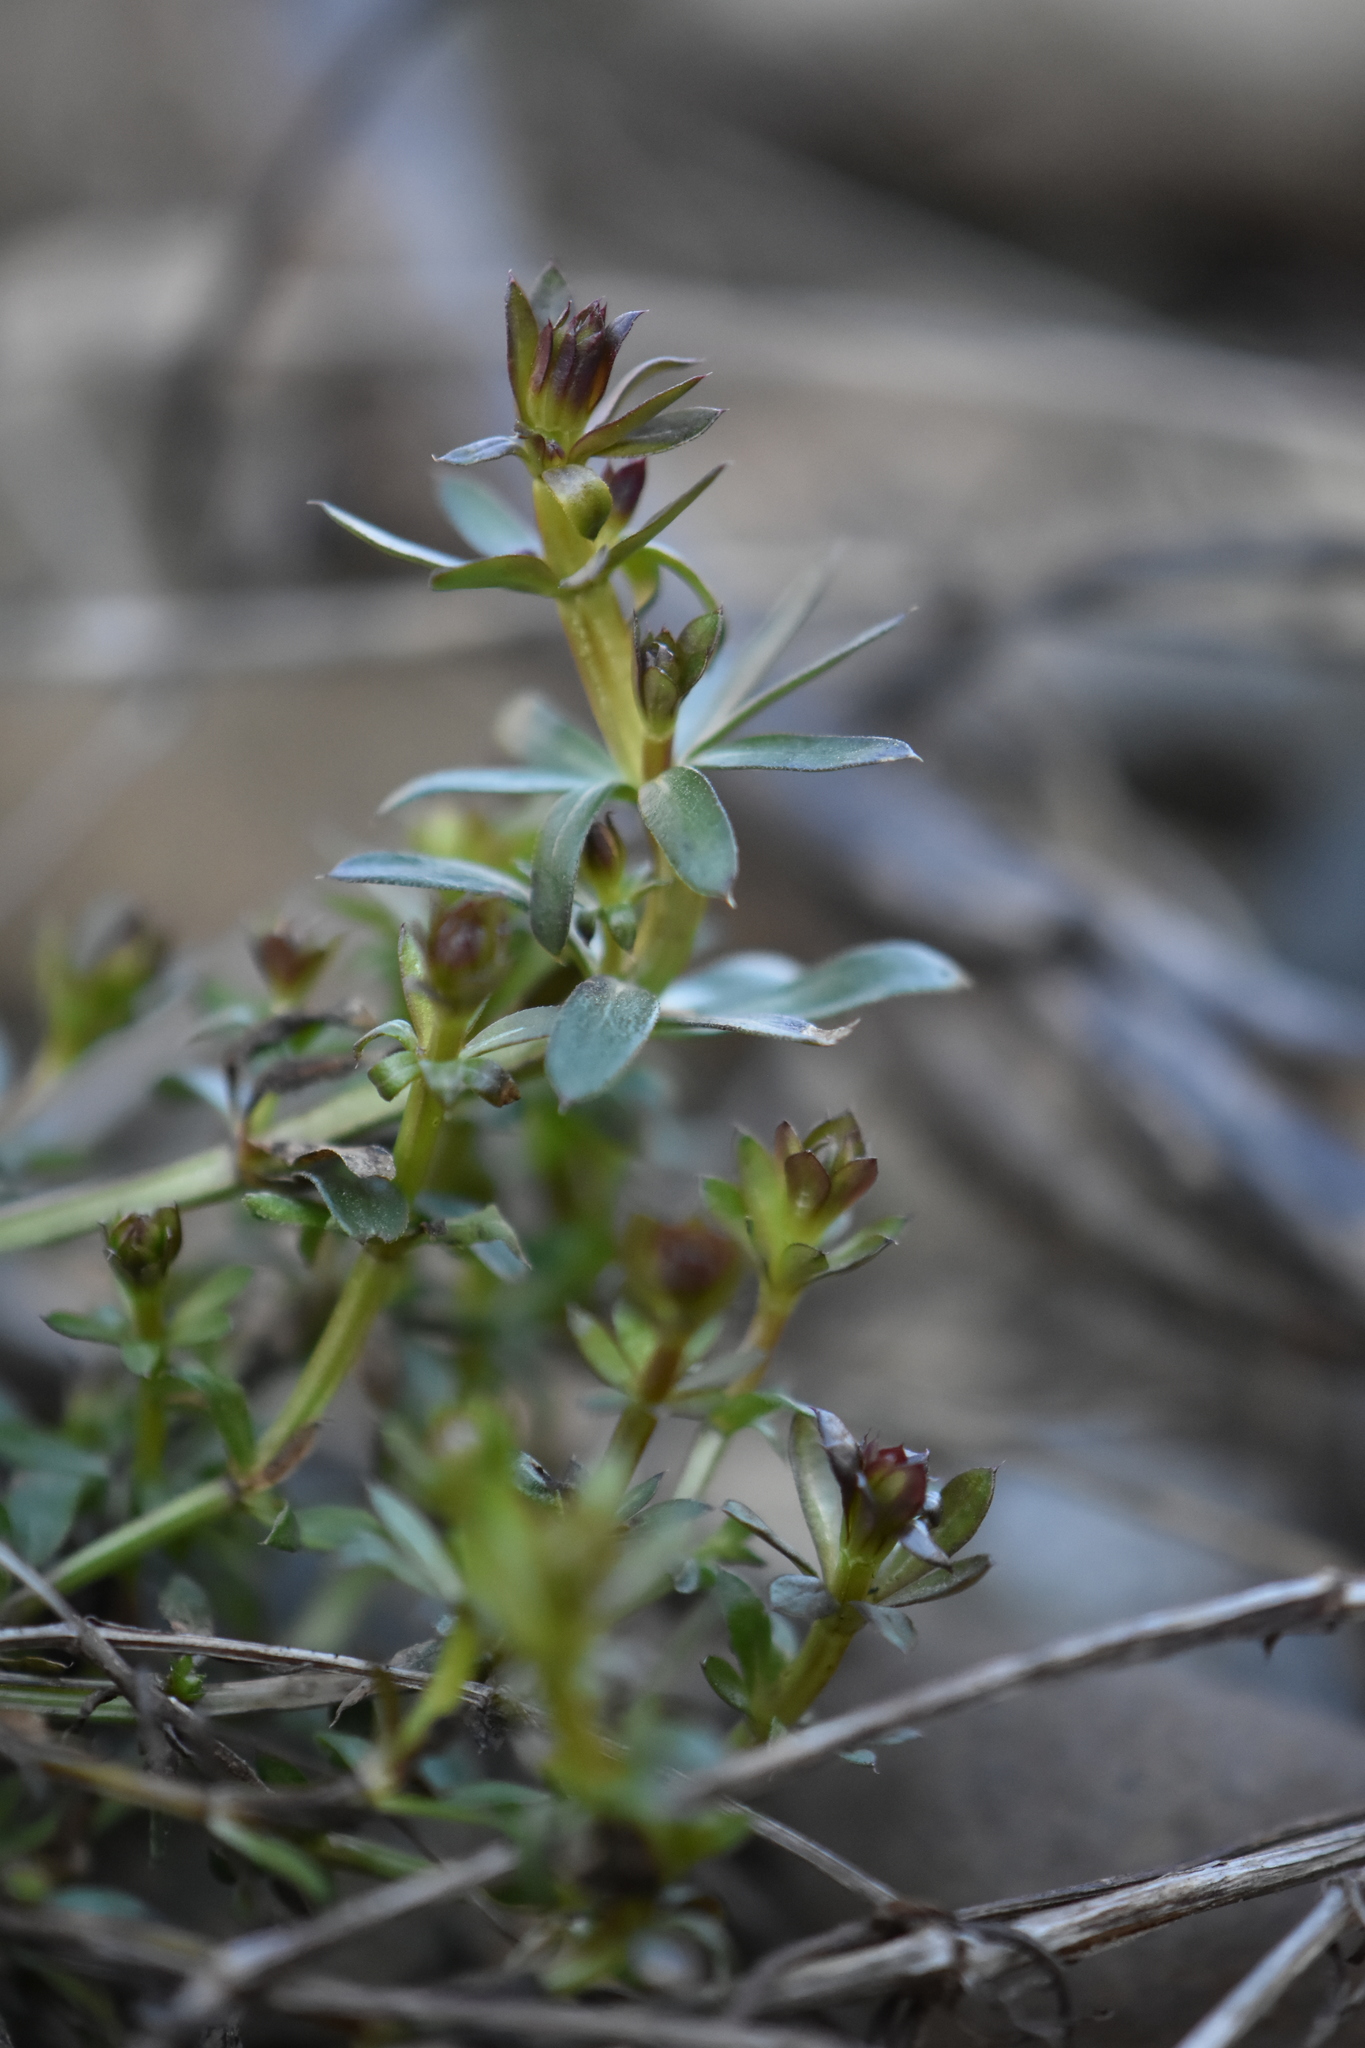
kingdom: Plantae
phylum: Tracheophyta
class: Magnoliopsida
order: Gentianales
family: Rubiaceae
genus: Galium
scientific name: Galium mollugo
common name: Hedge bedstraw
